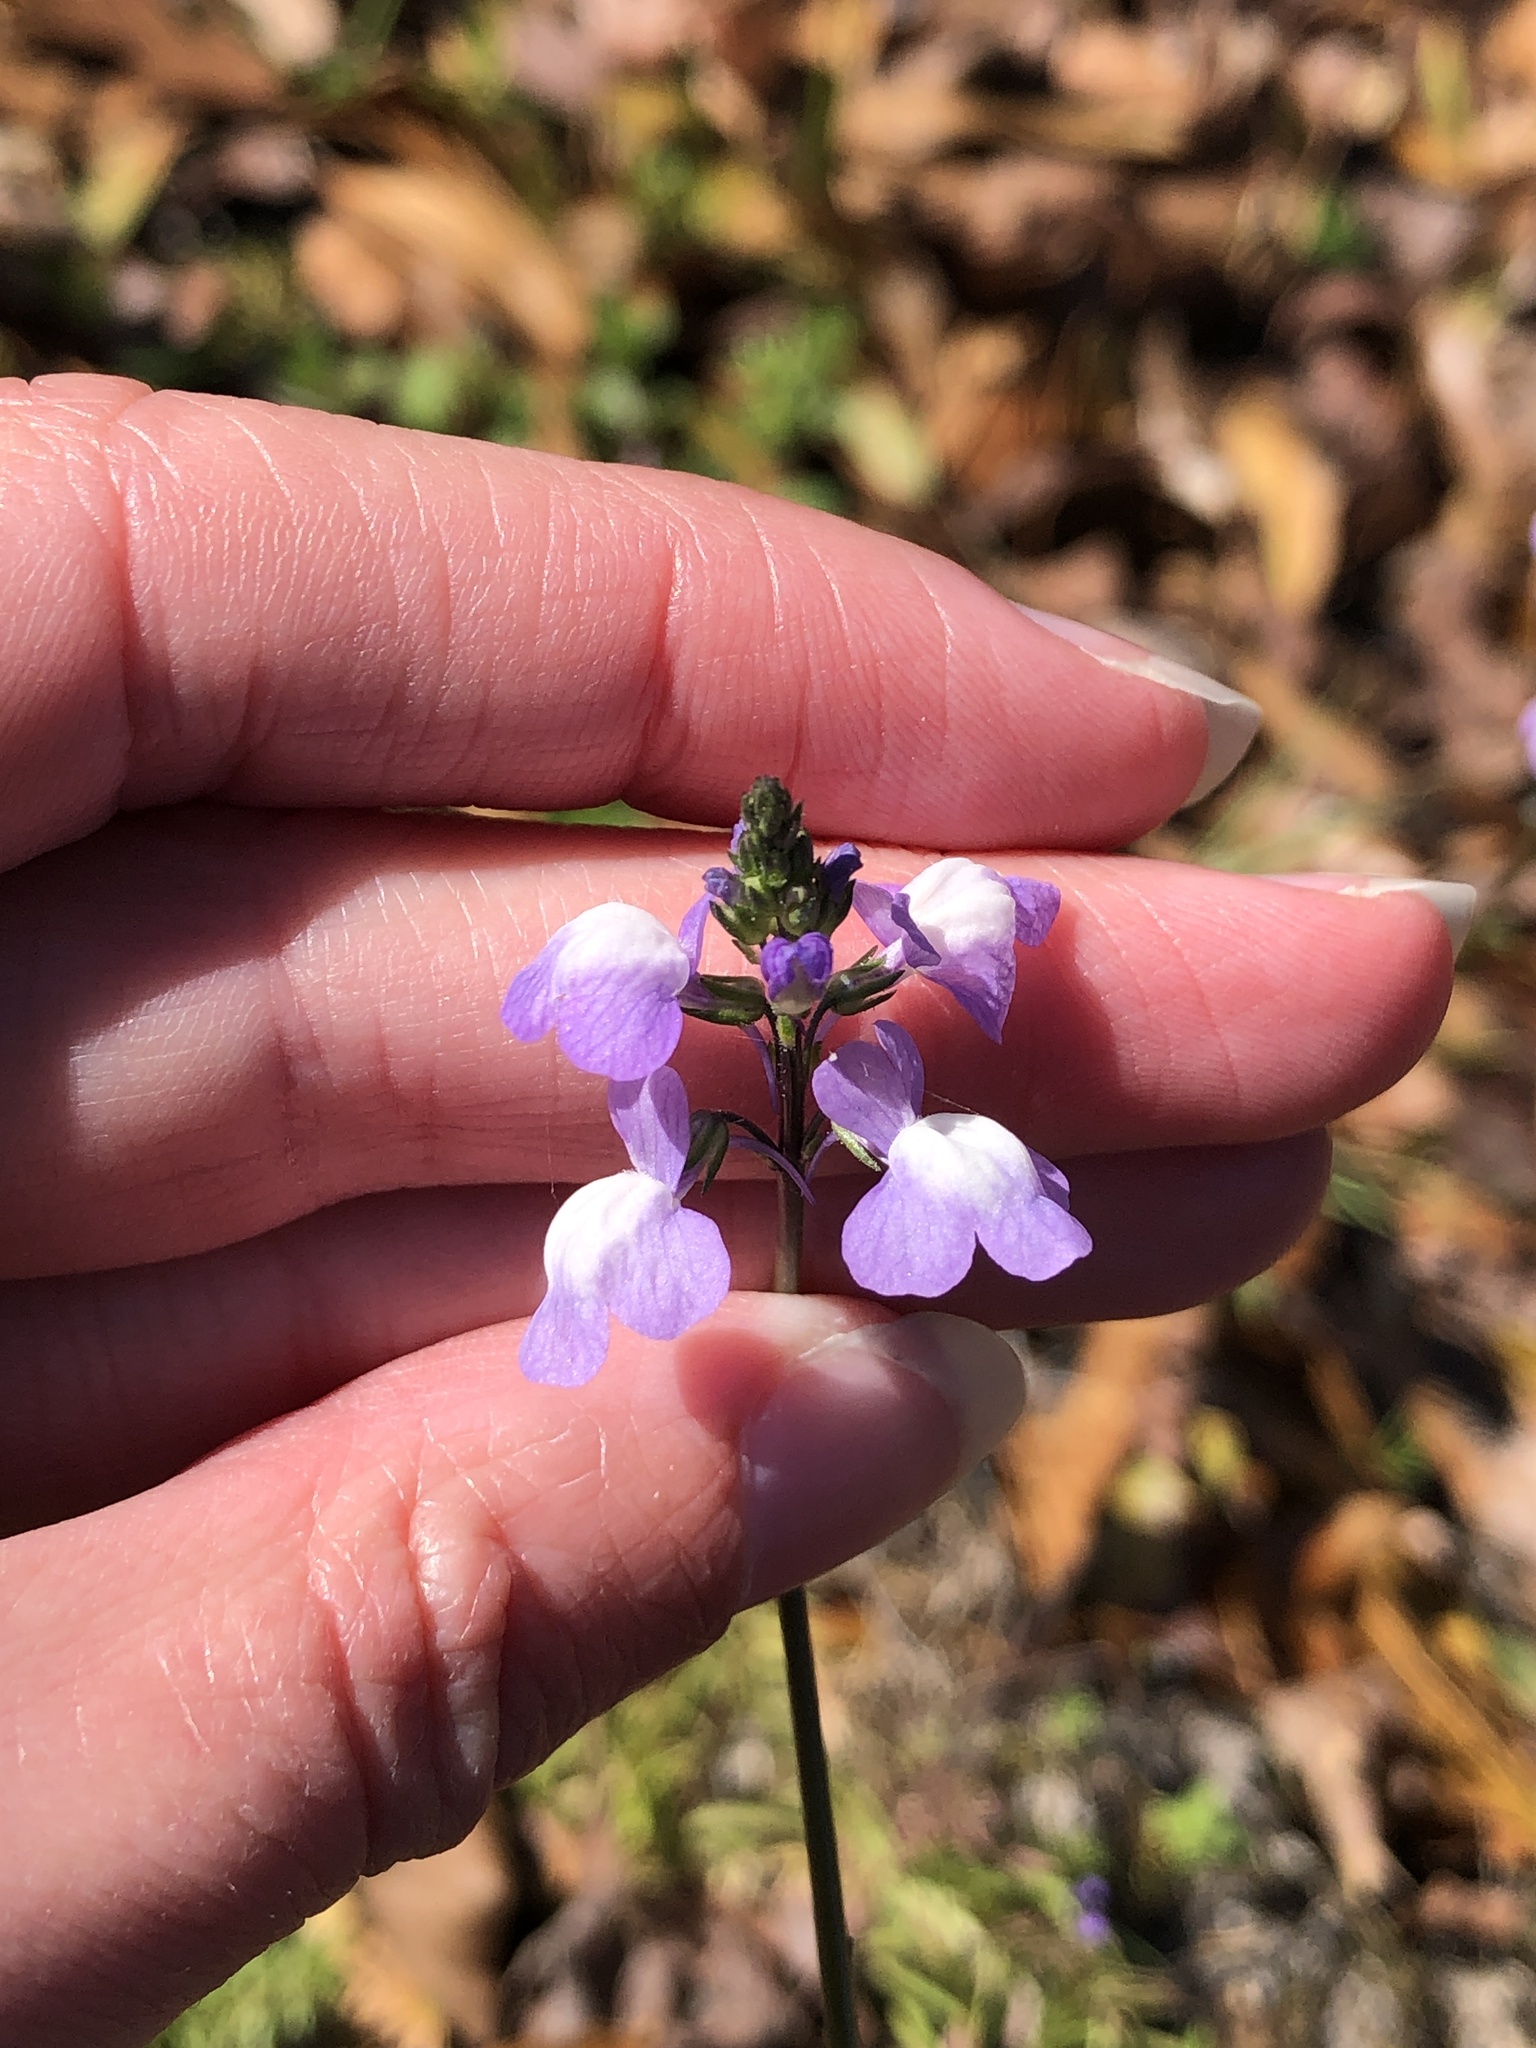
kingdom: Plantae
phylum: Tracheophyta
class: Magnoliopsida
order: Lamiales
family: Plantaginaceae
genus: Nuttallanthus
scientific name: Nuttallanthus canadensis
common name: Blue toadflax
